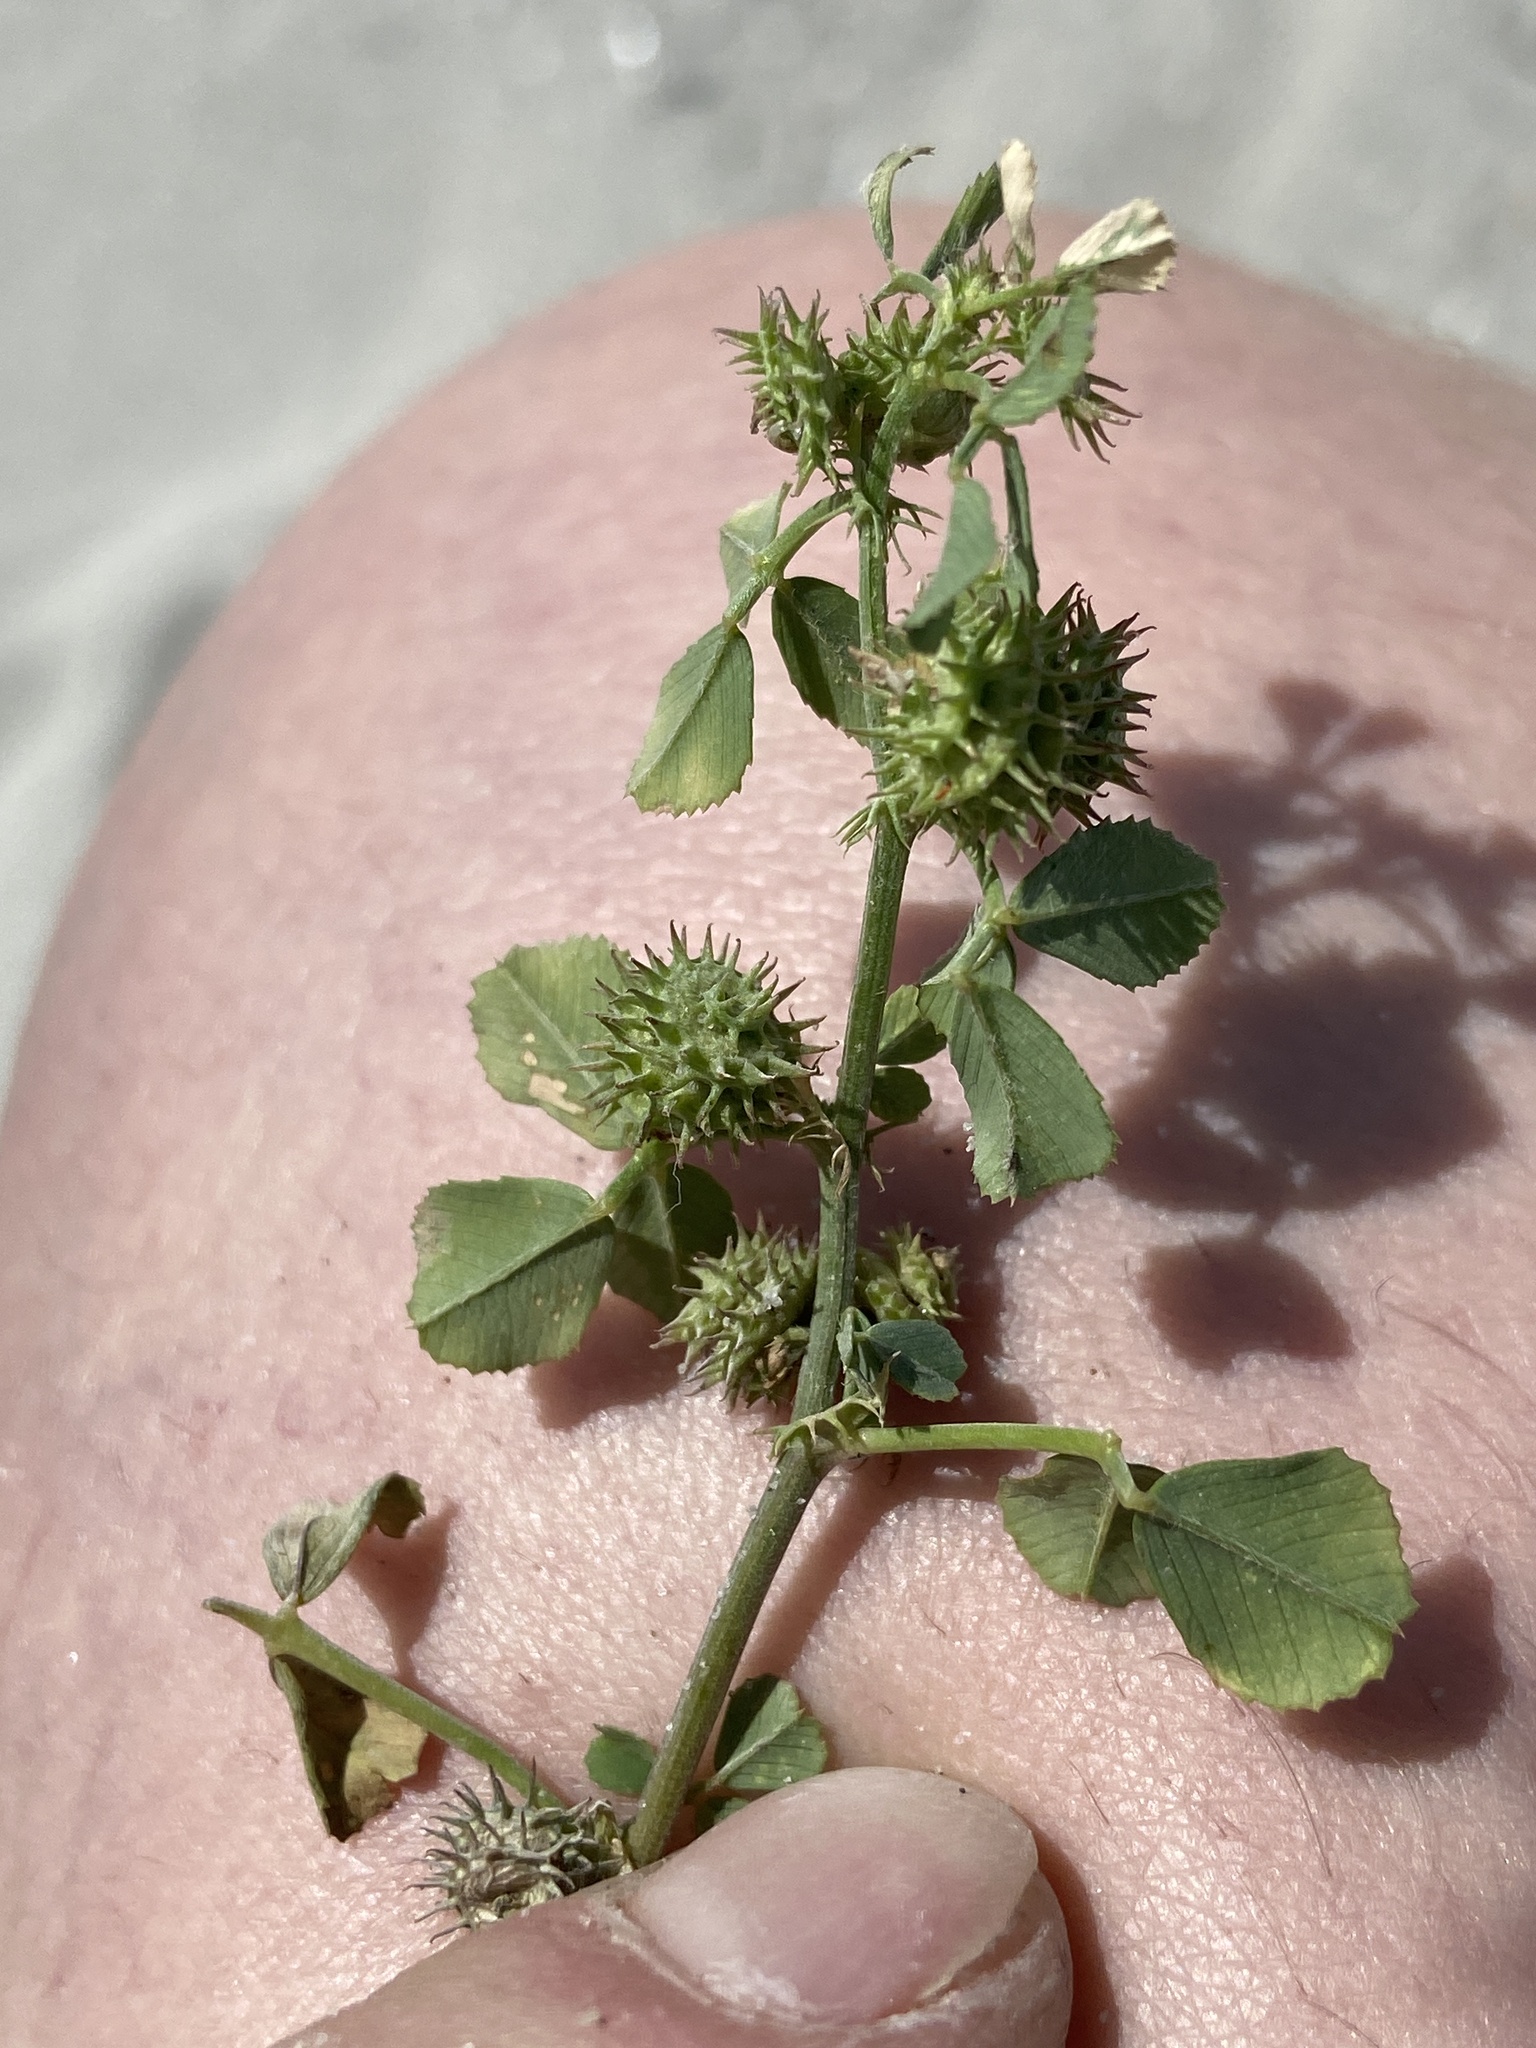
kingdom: Plantae
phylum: Tracheophyta
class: Magnoliopsida
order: Fabales
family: Fabaceae
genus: Medicago
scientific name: Medicago polymorpha
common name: Burclover
